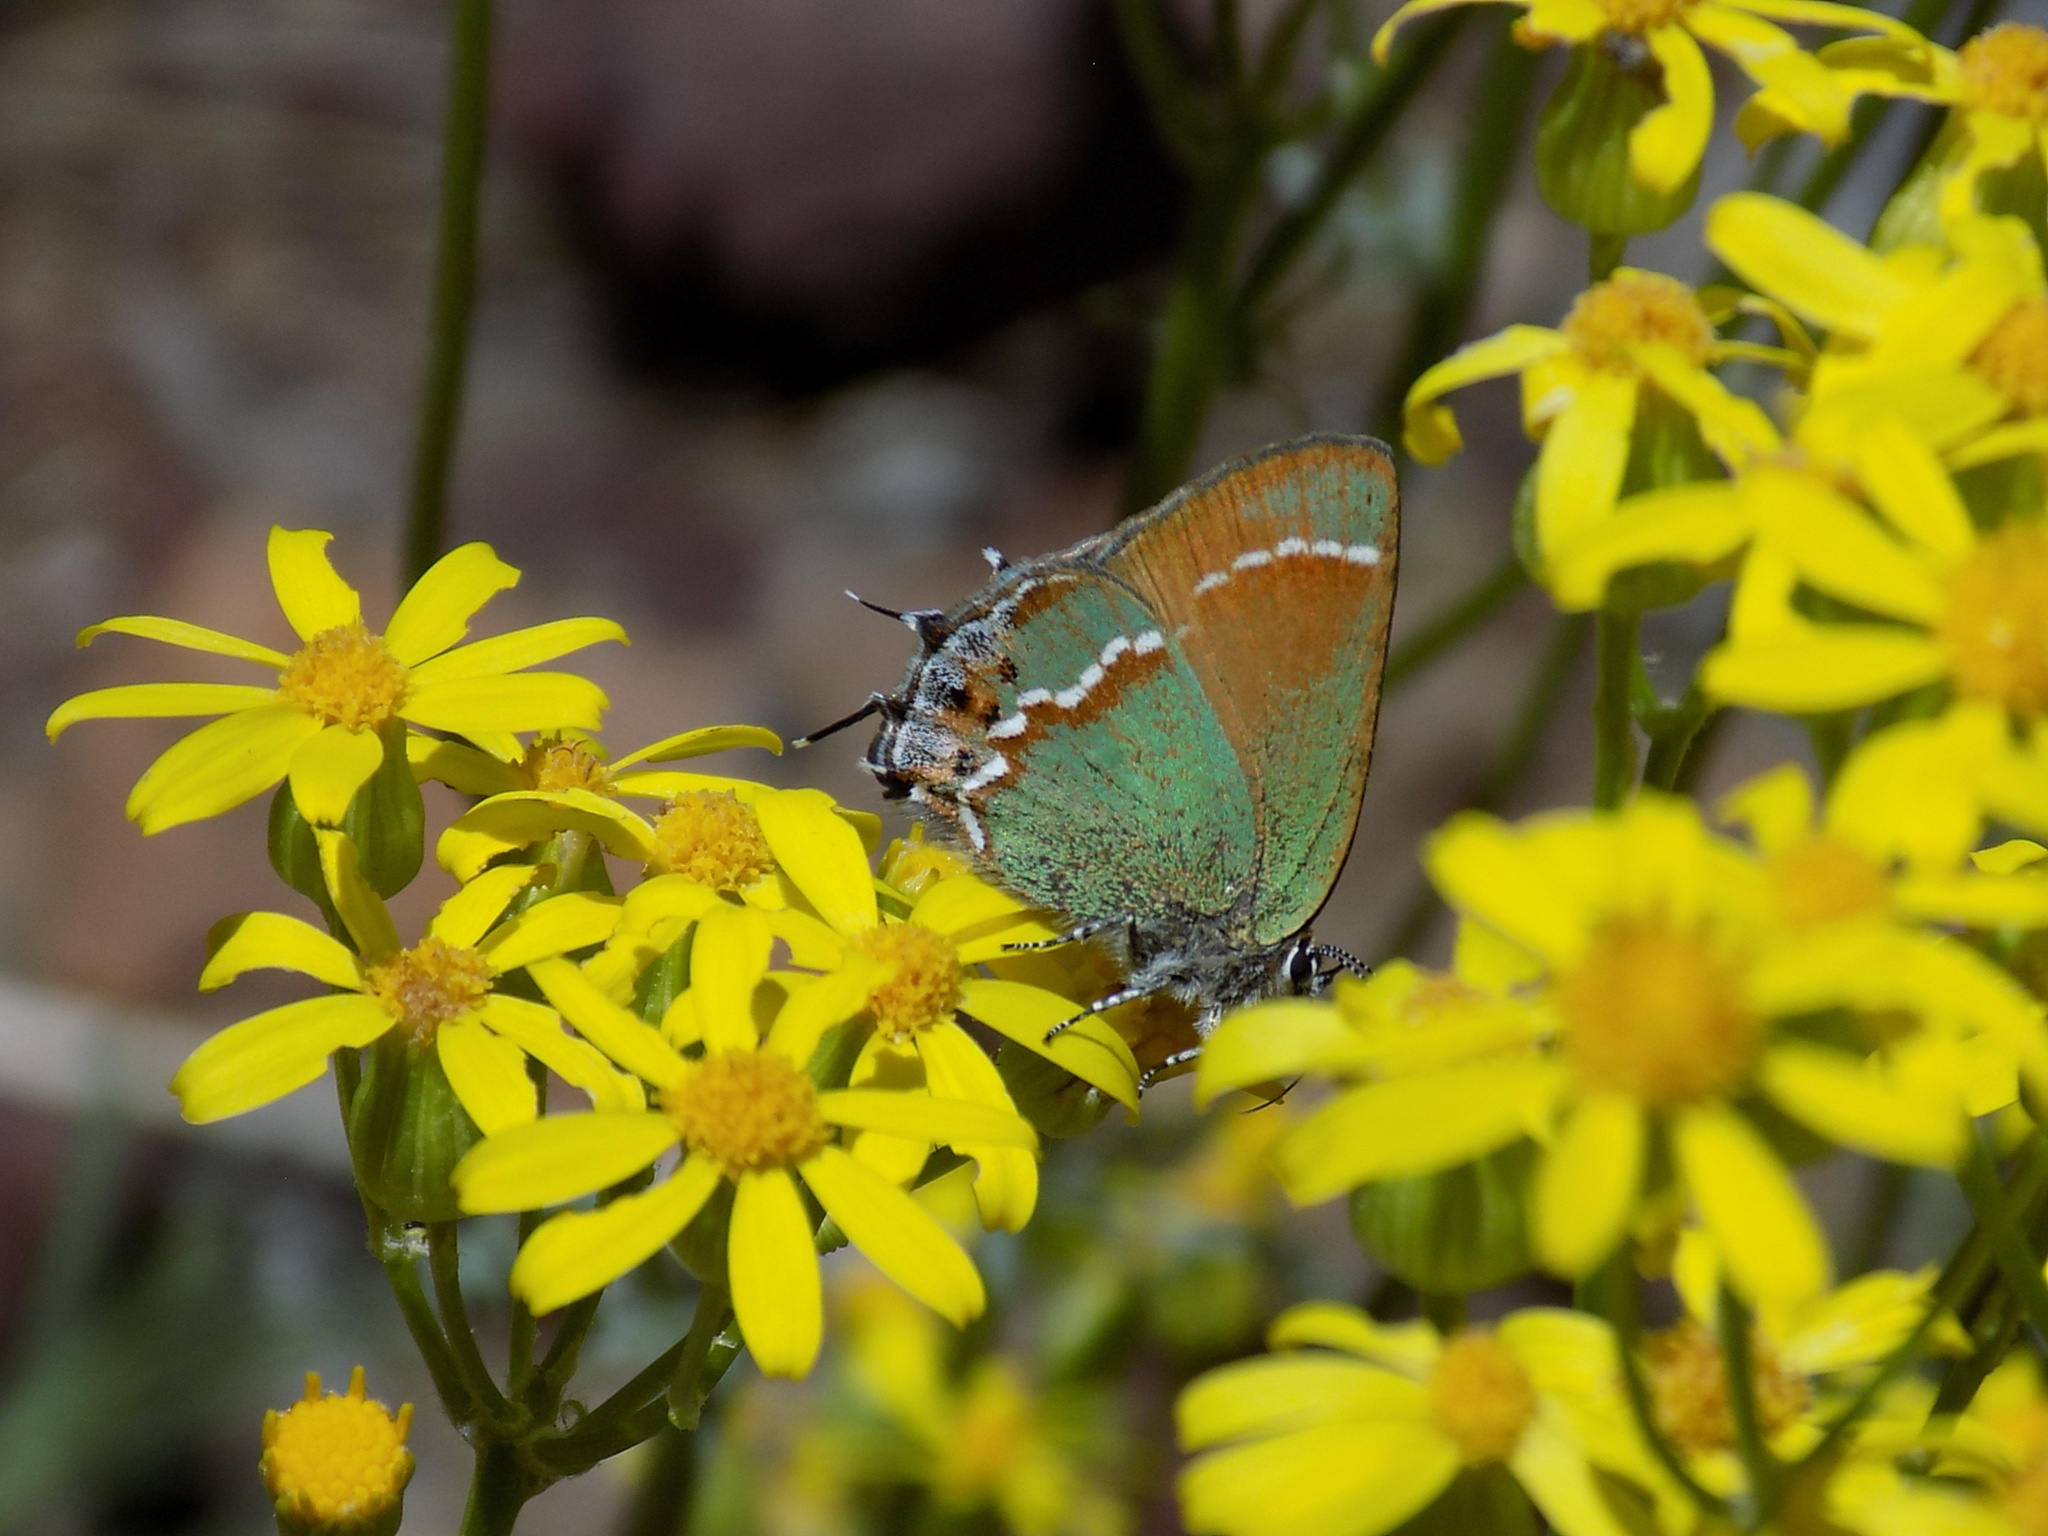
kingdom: Animalia
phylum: Arthropoda
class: Insecta
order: Lepidoptera
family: Lycaenidae
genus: Mitoura
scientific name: Mitoura gryneus
